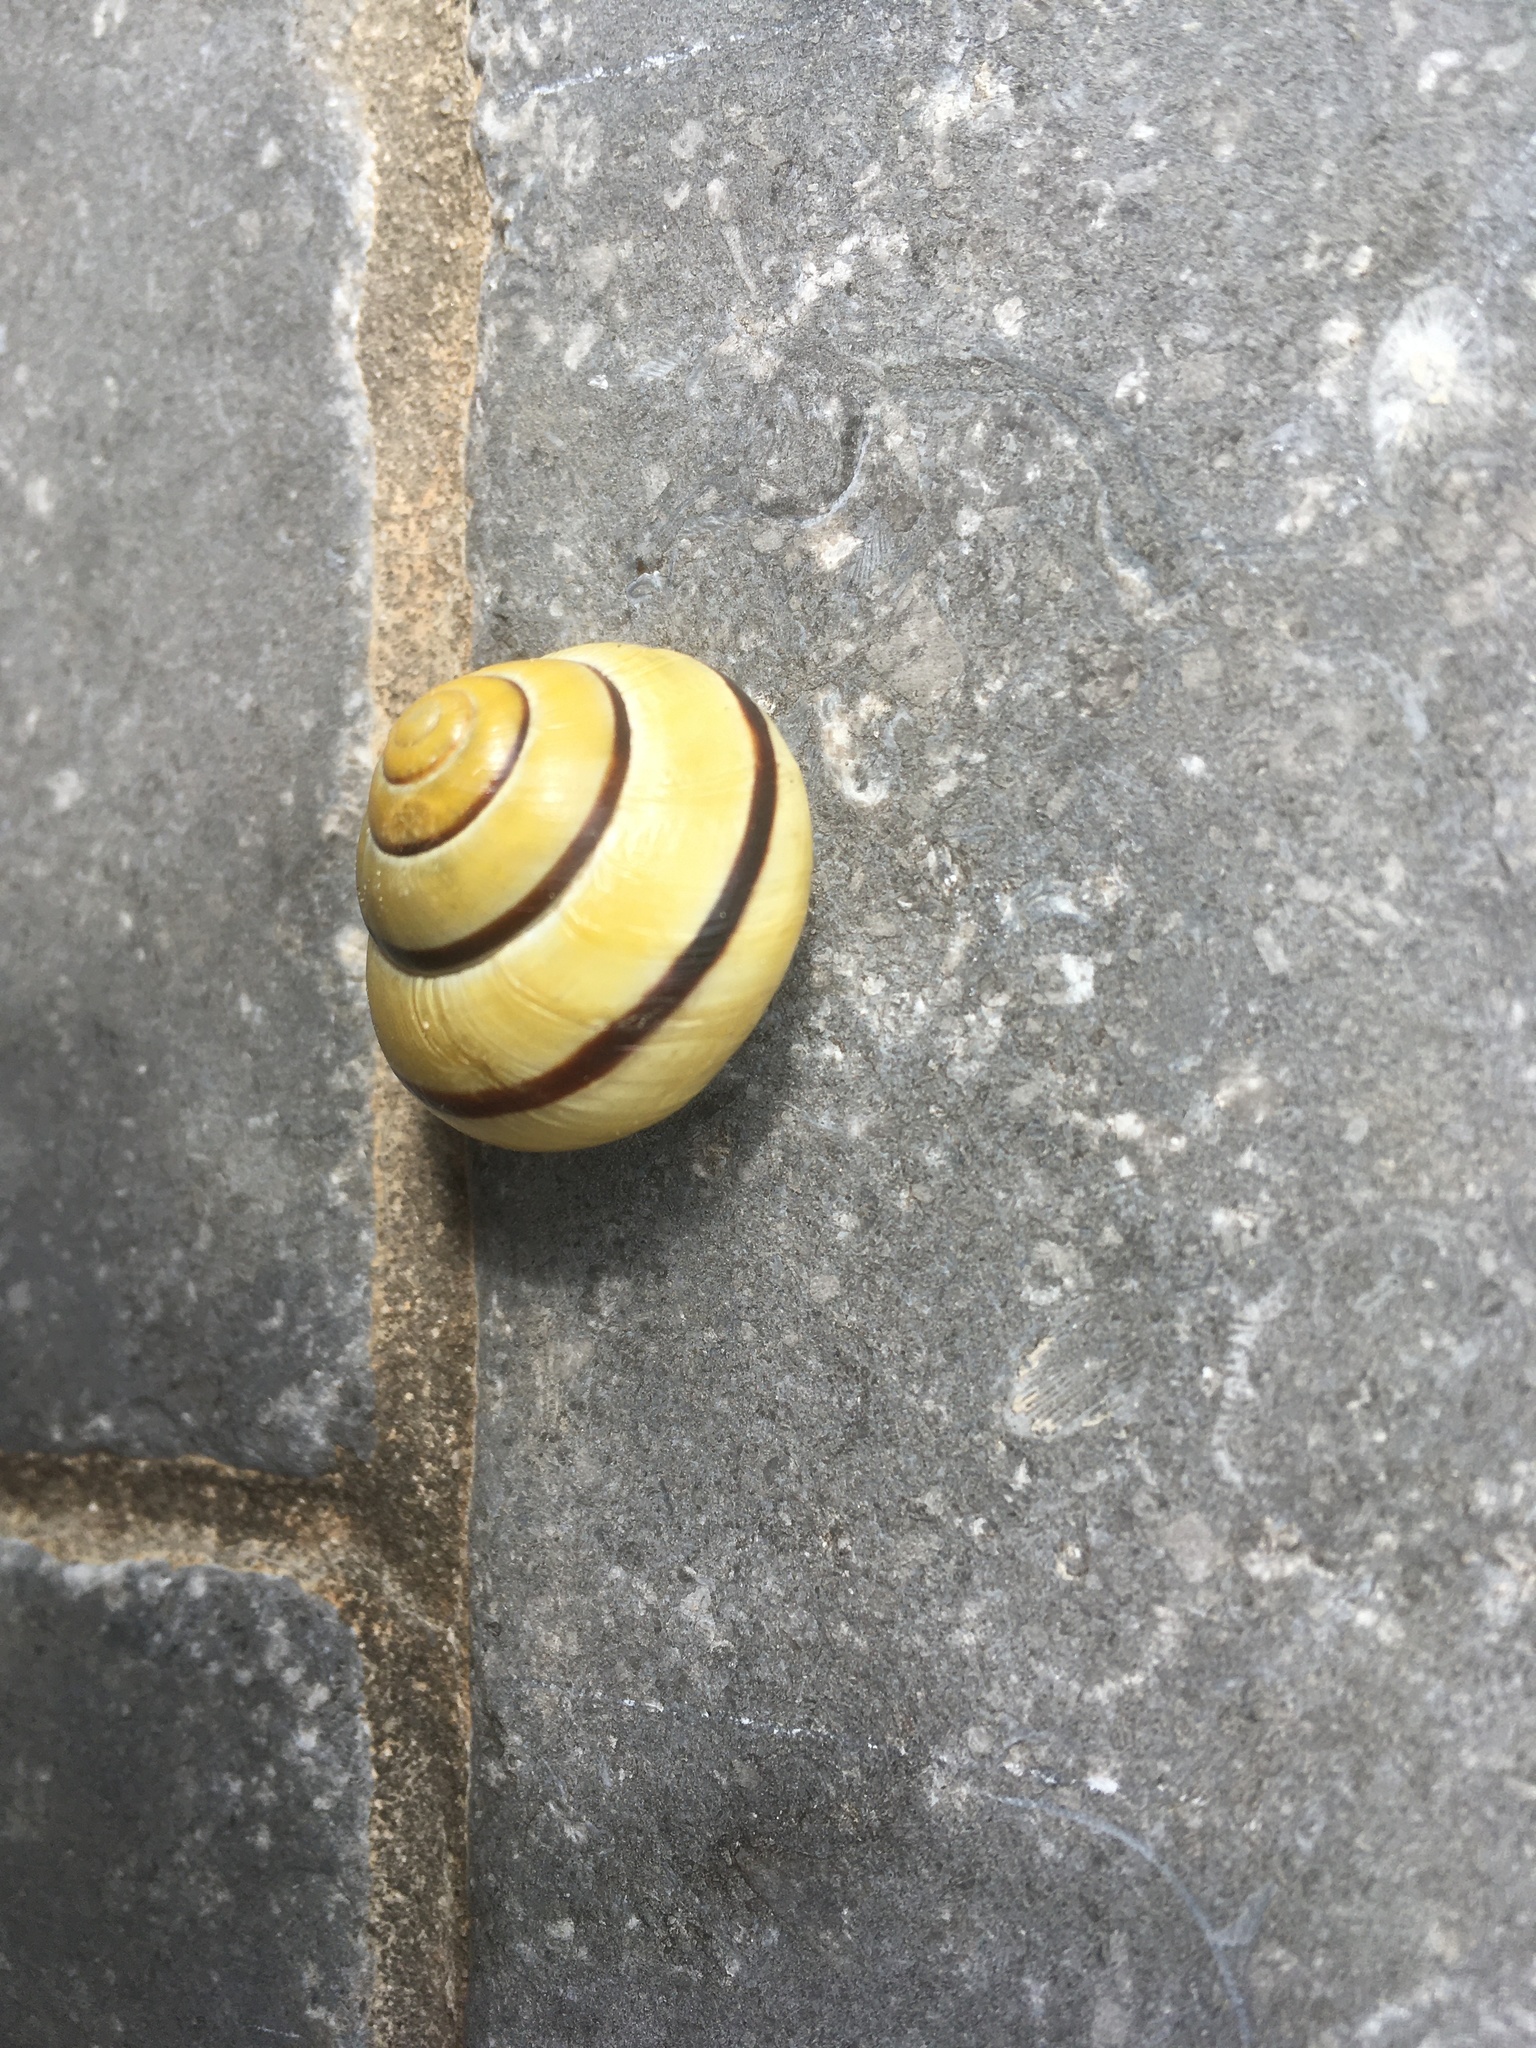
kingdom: Animalia
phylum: Mollusca
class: Gastropoda
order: Stylommatophora
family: Helicidae
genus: Cepaea
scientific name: Cepaea nemoralis
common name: Grovesnail
